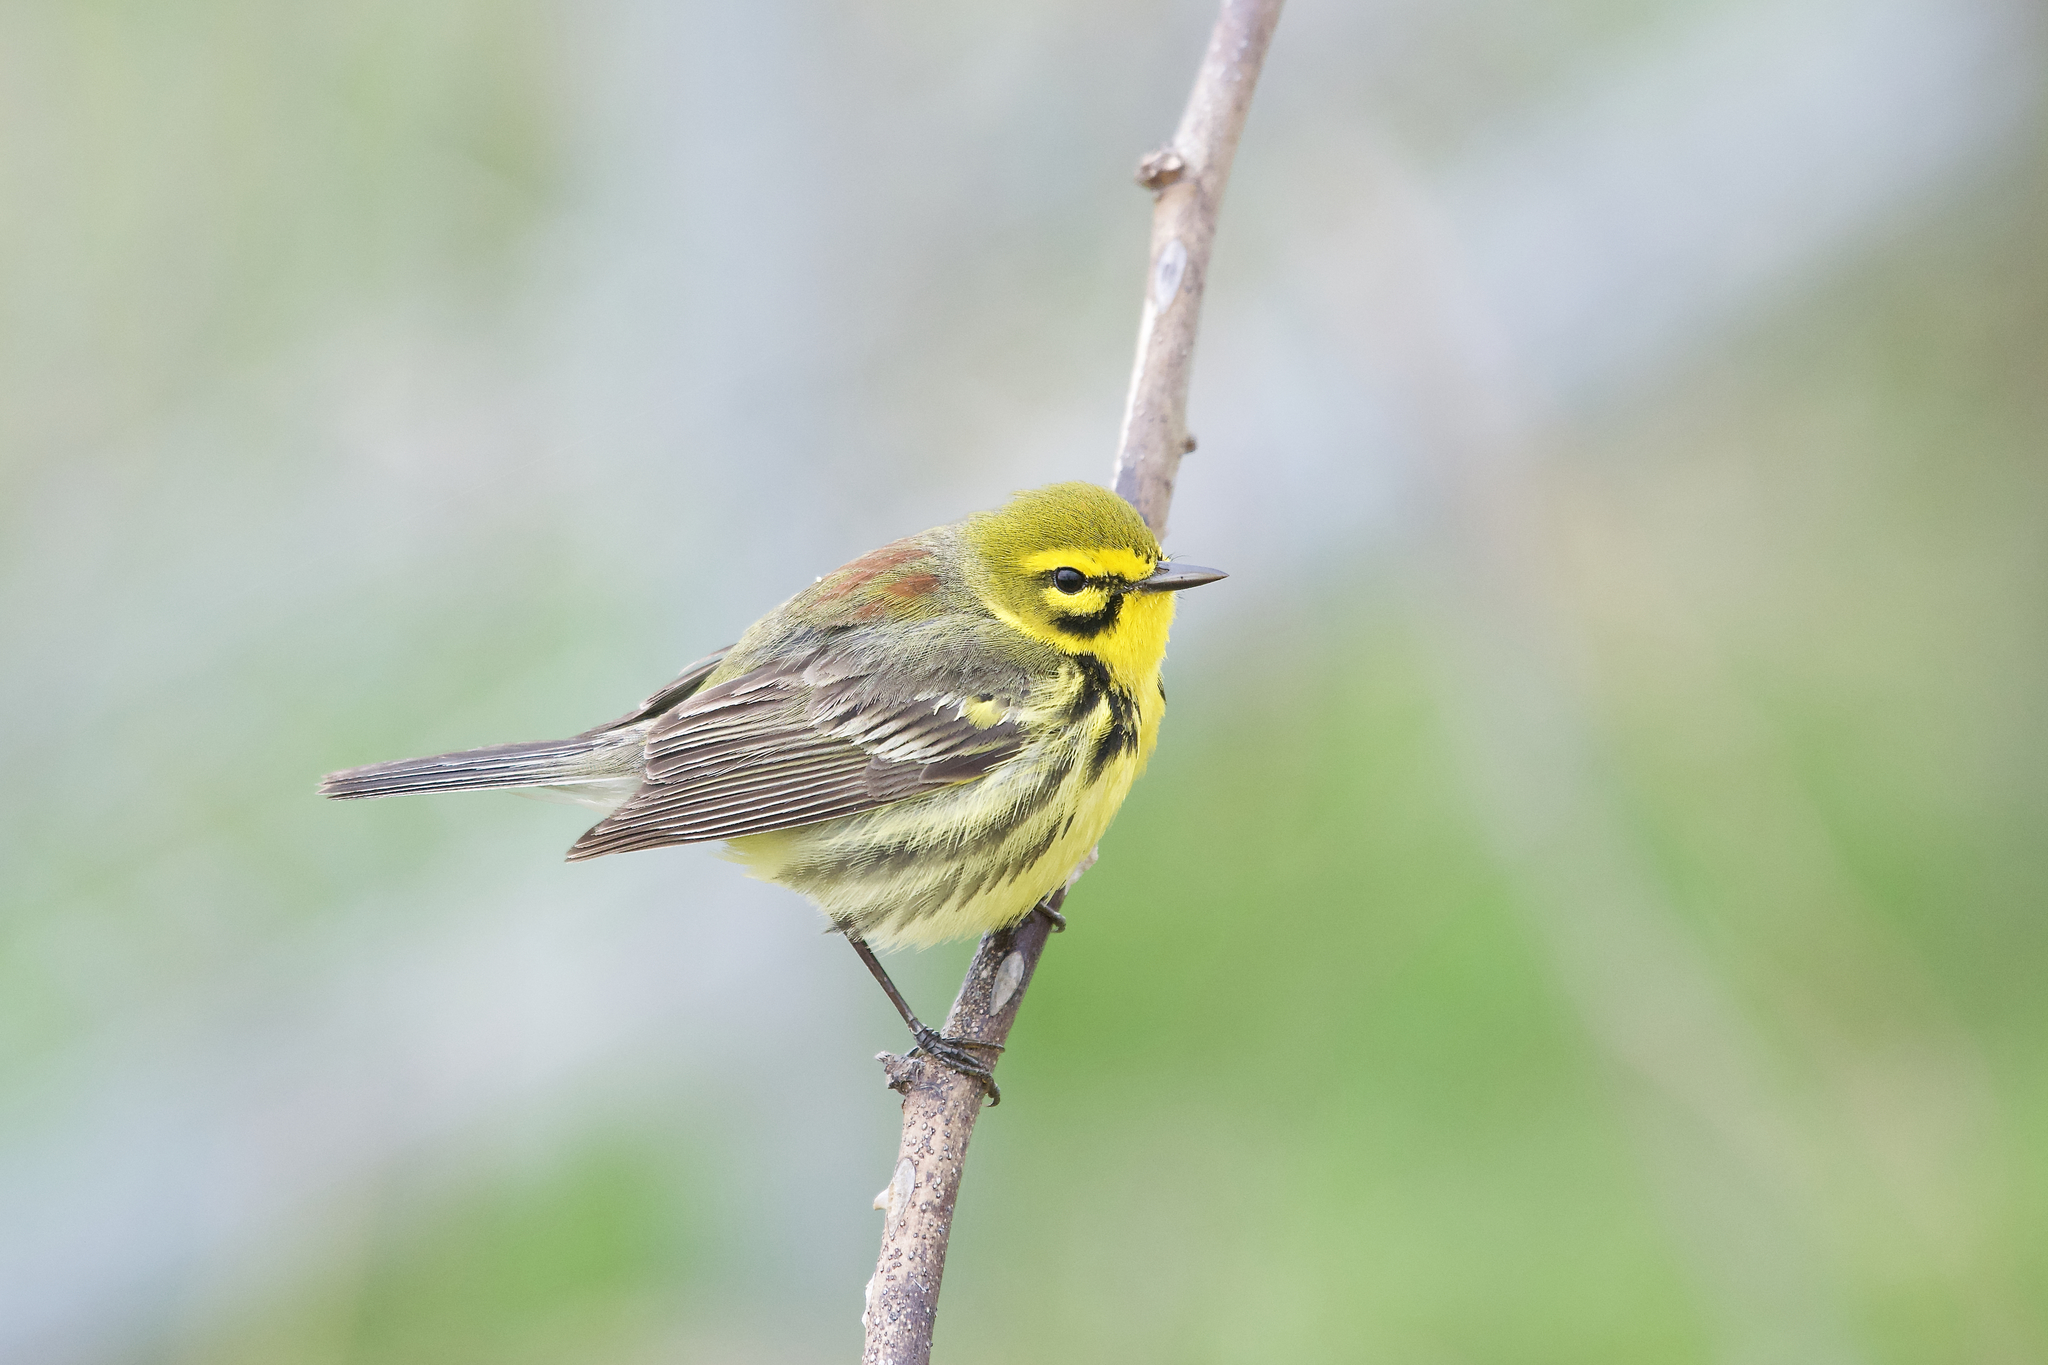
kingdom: Animalia
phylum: Chordata
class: Aves
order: Passeriformes
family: Parulidae
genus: Setophaga
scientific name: Setophaga discolor
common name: Prairie warbler
